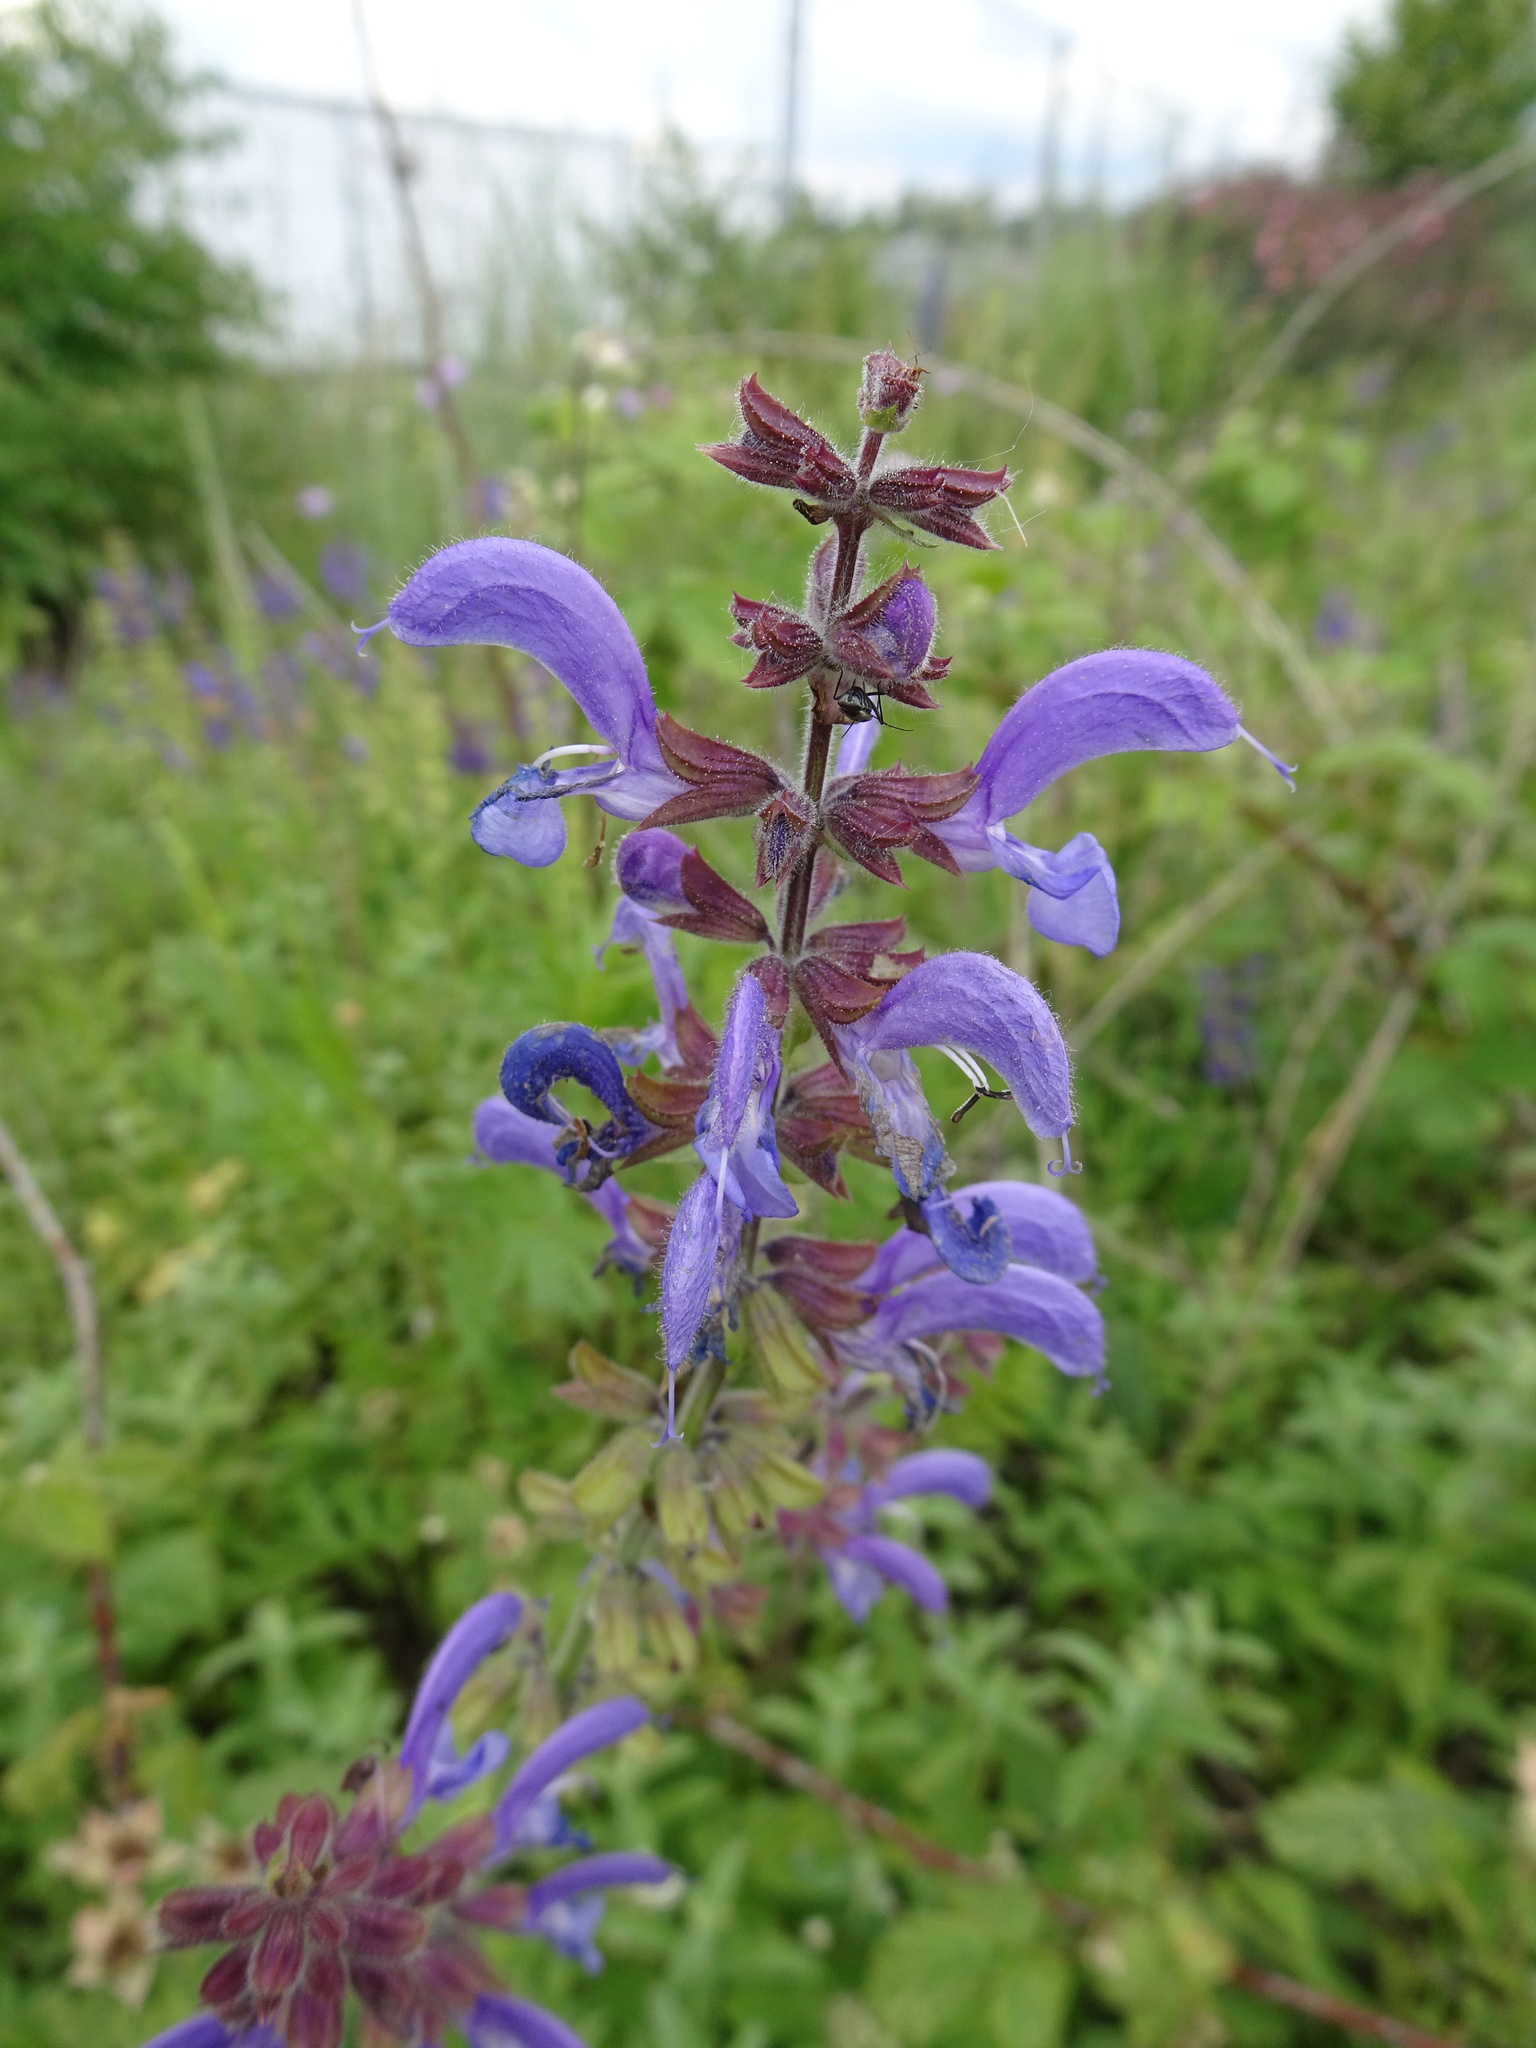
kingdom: Plantae
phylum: Tracheophyta
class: Magnoliopsida
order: Lamiales
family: Lamiaceae
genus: Salvia
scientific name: Salvia pratensis
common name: Meadow sage
